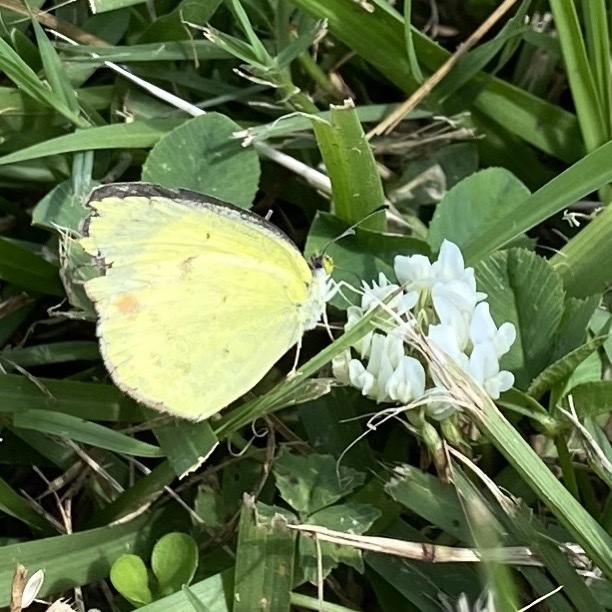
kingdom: Animalia
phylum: Arthropoda
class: Insecta
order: Lepidoptera
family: Pieridae
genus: Pyrisitia
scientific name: Pyrisitia lisa
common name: Little yellow
